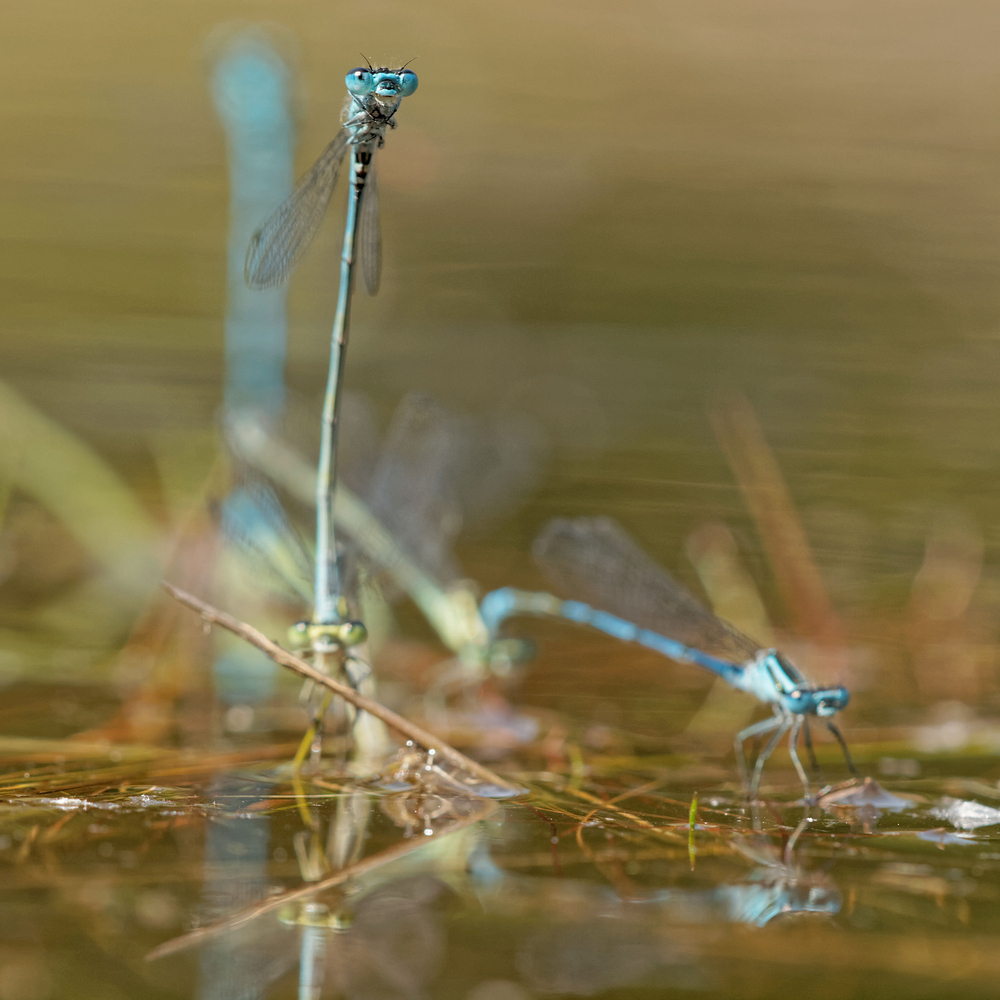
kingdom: Animalia
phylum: Arthropoda
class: Insecta
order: Odonata
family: Coenagrionidae
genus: Coenagrion
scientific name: Coenagrion puella
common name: Azure damselfly
